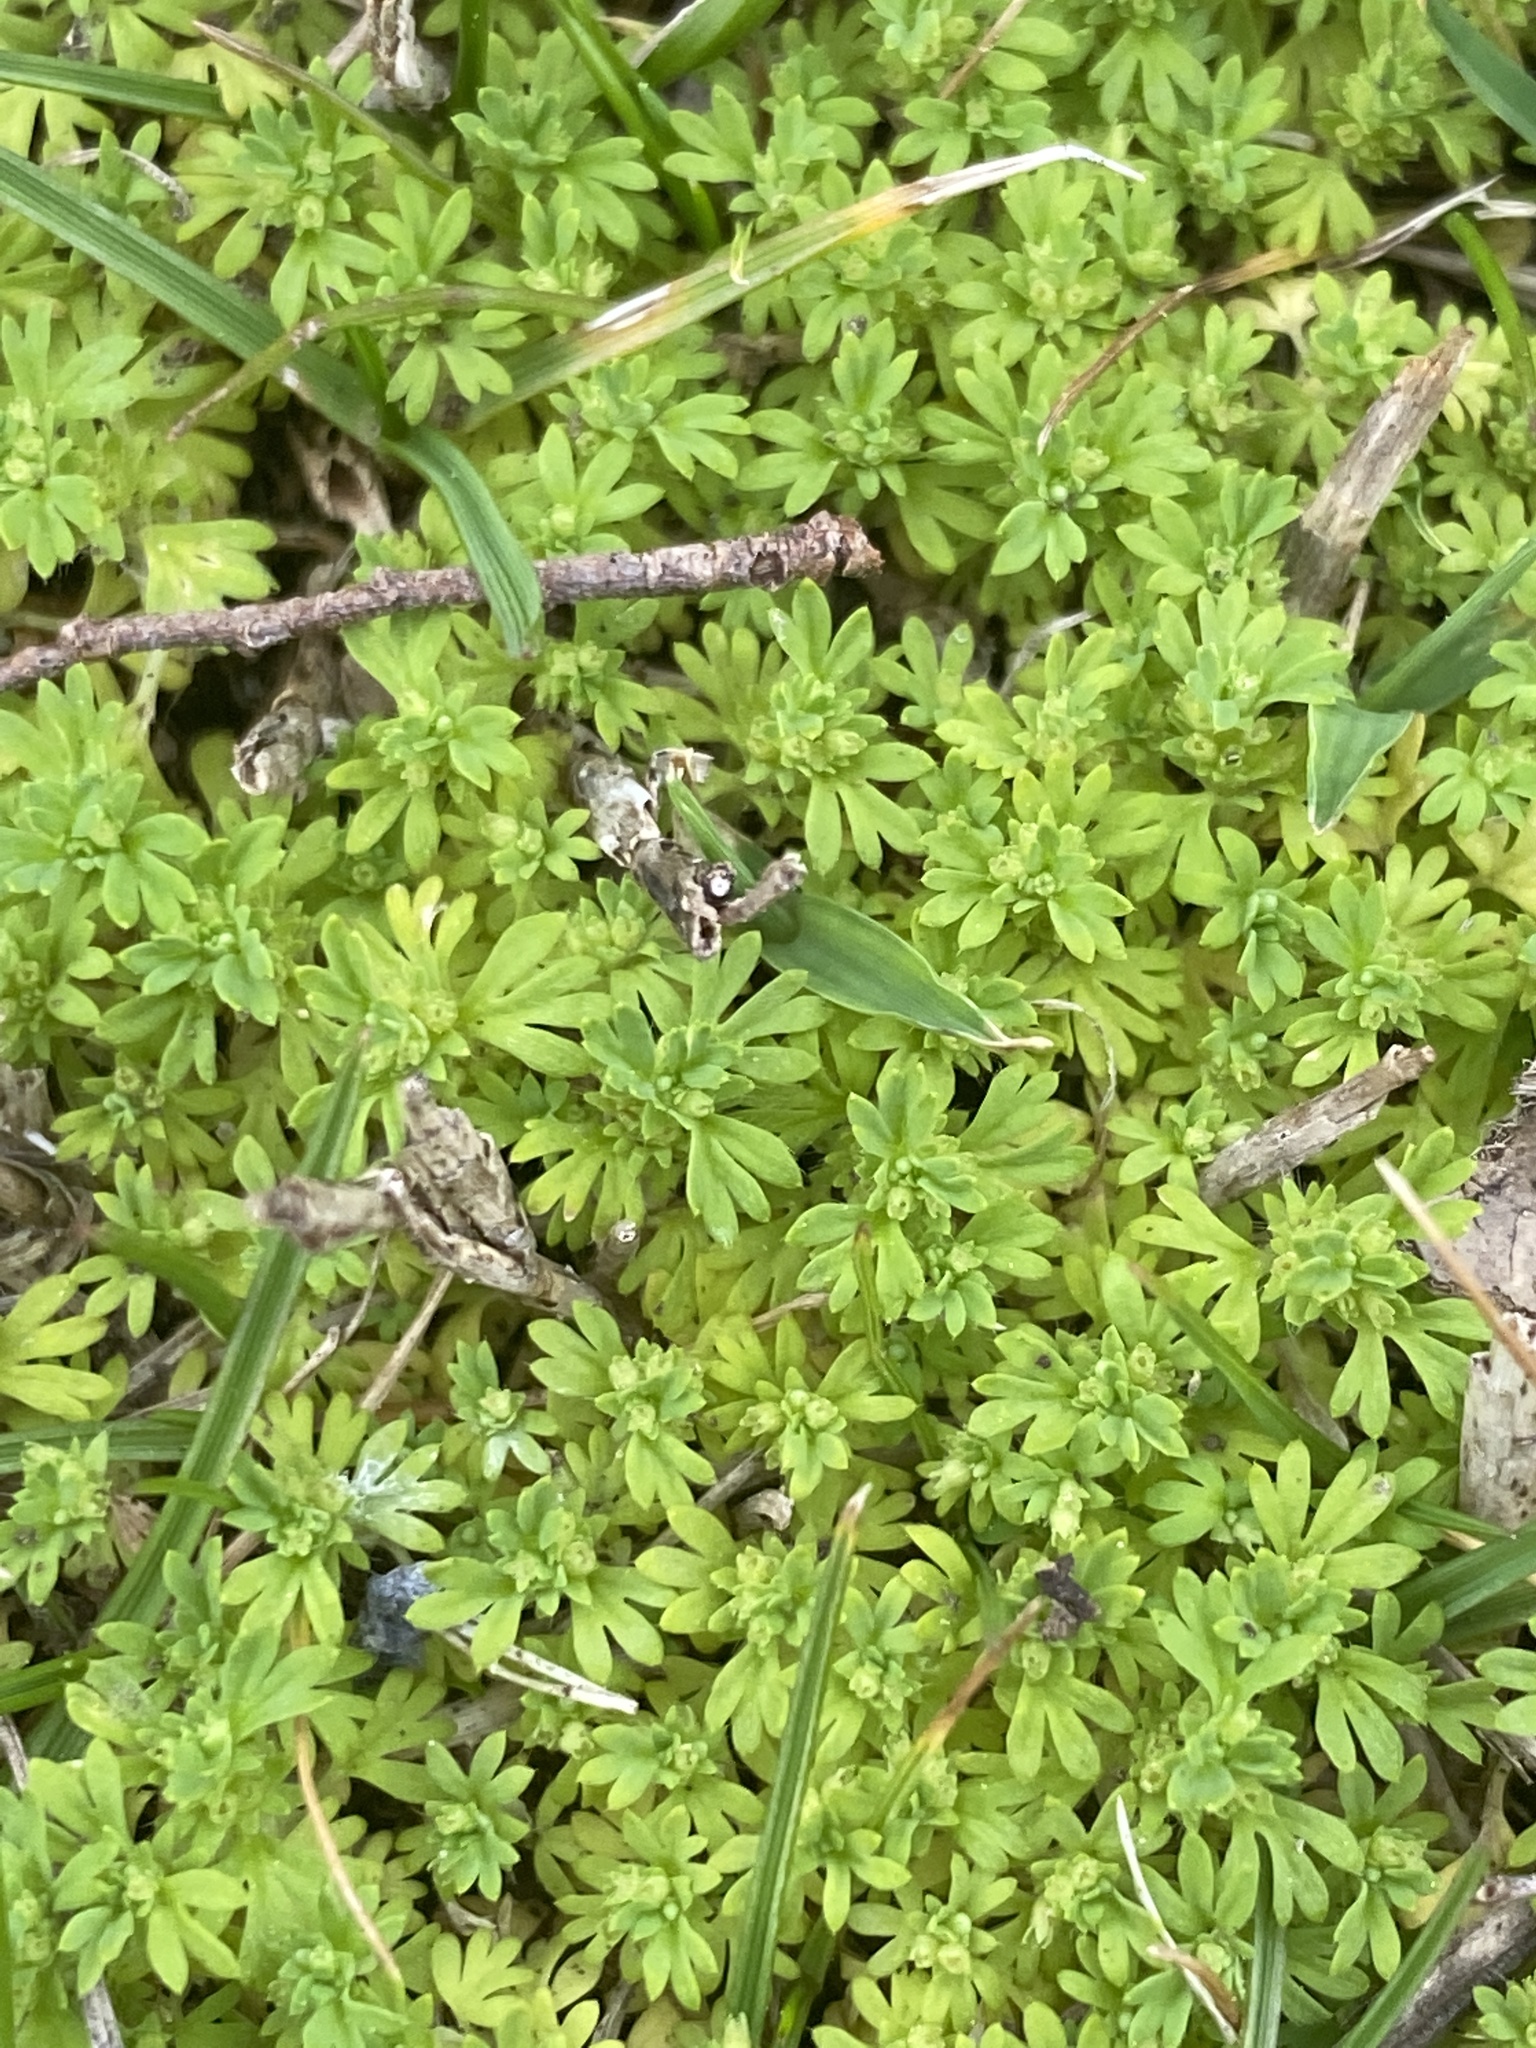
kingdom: Plantae
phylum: Tracheophyta
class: Magnoliopsida
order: Rosales
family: Rosaceae
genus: Aphanes
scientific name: Aphanes australis
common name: Slender parsley-piert
